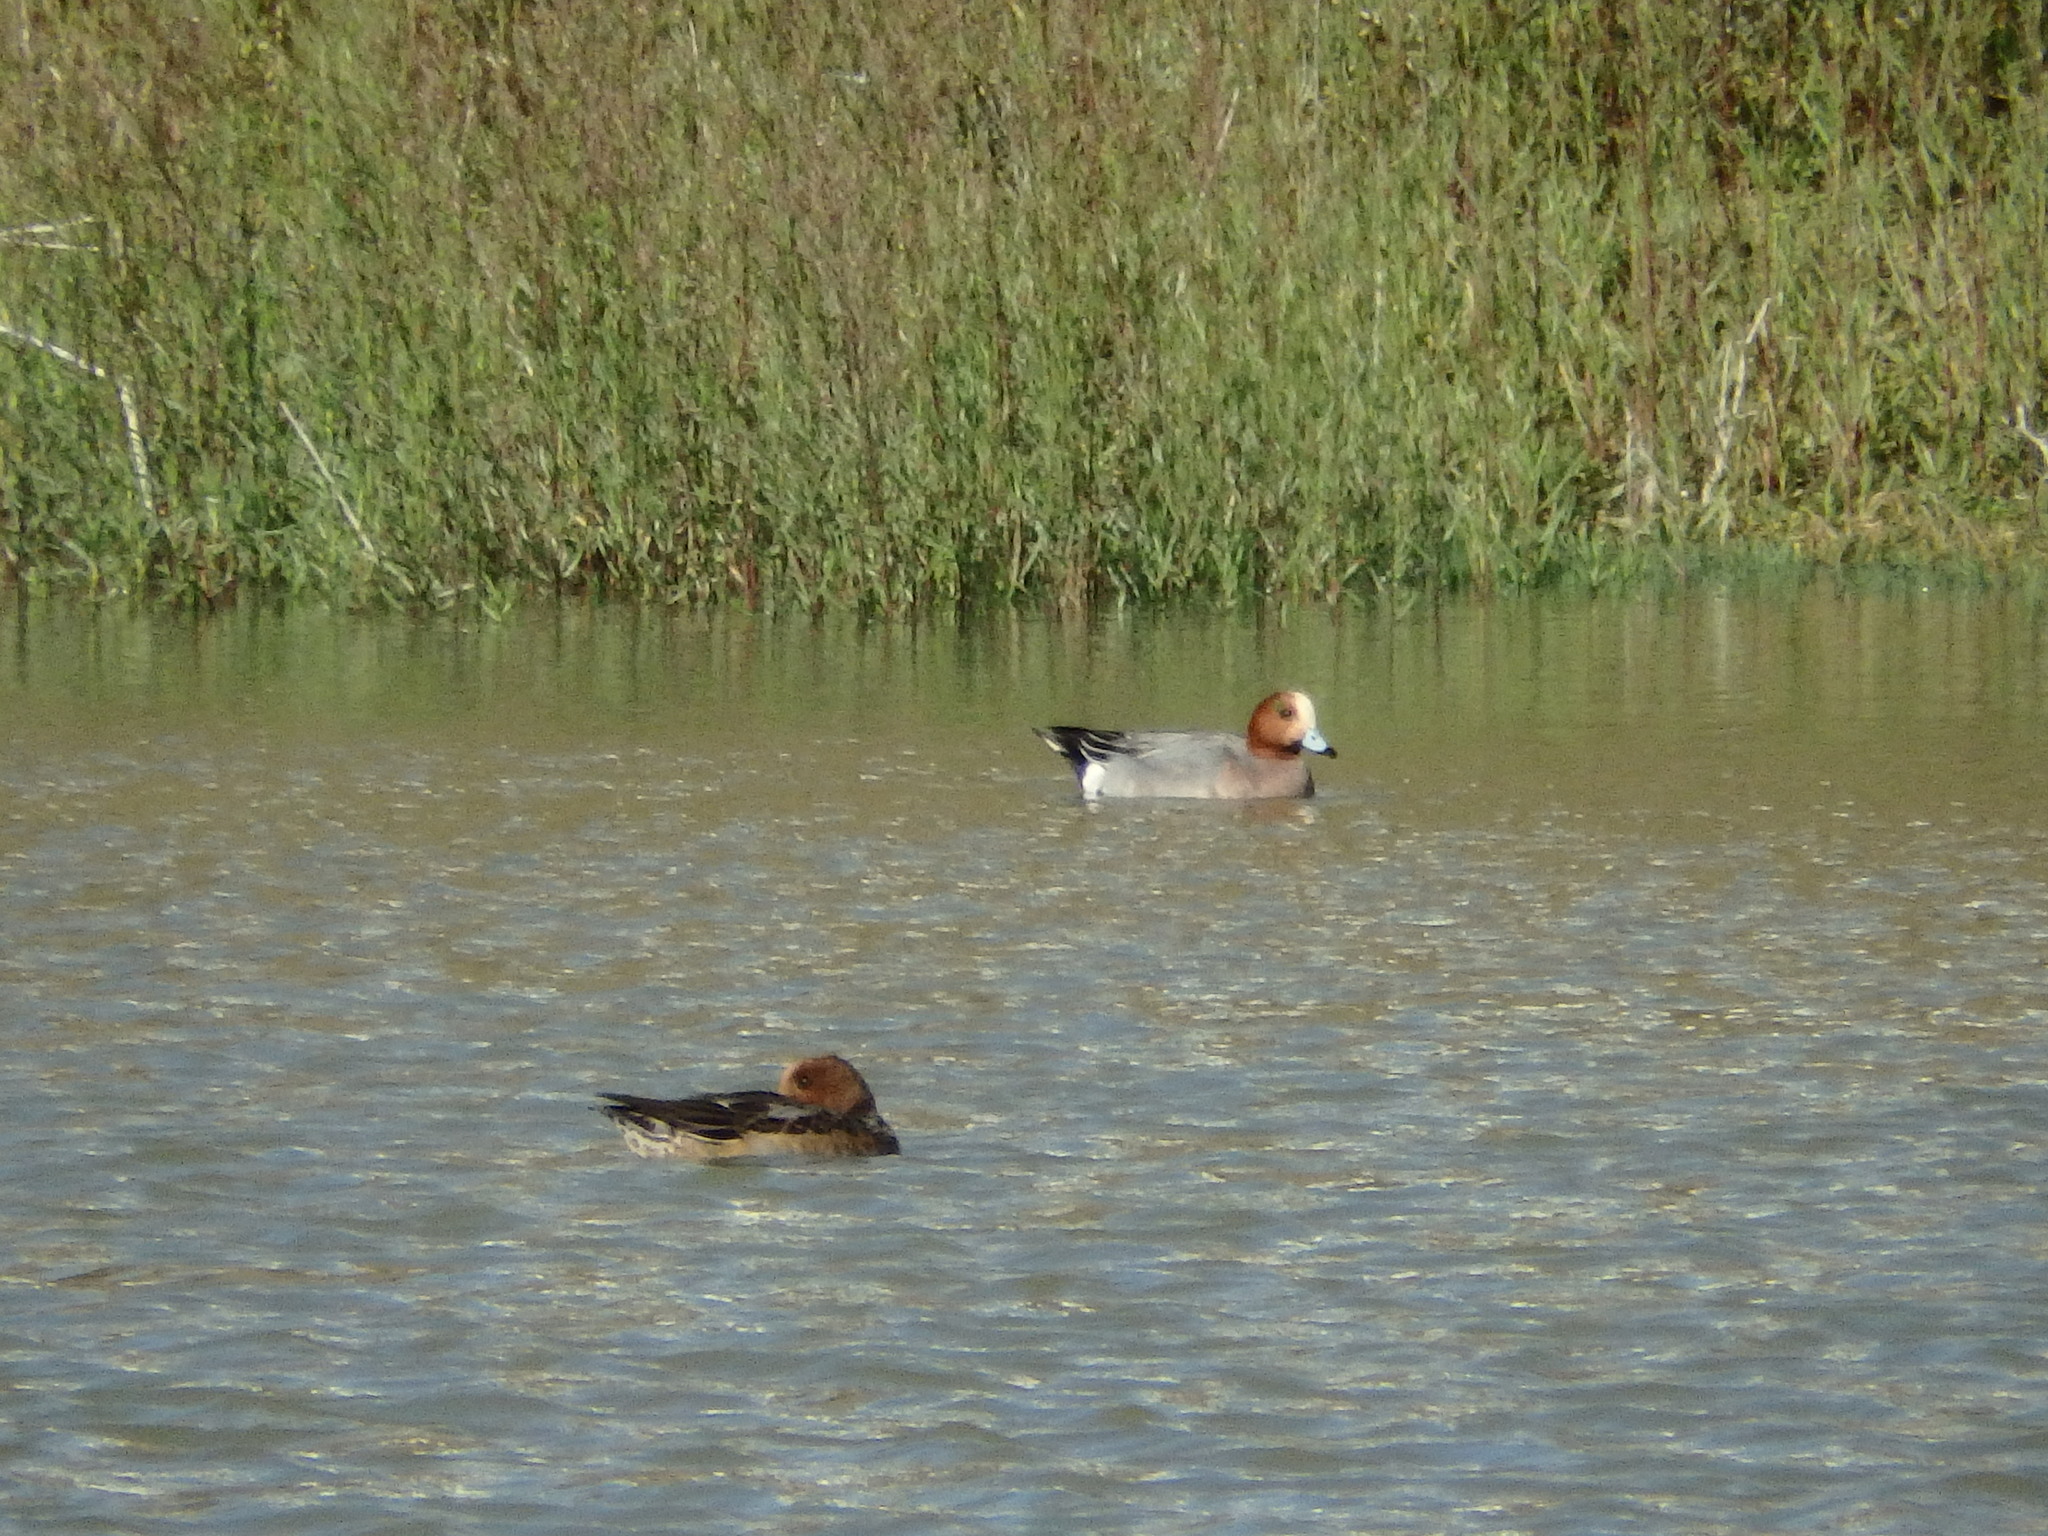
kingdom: Animalia
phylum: Chordata
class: Aves
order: Anseriformes
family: Anatidae
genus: Mareca
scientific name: Mareca penelope
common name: Eurasian wigeon
